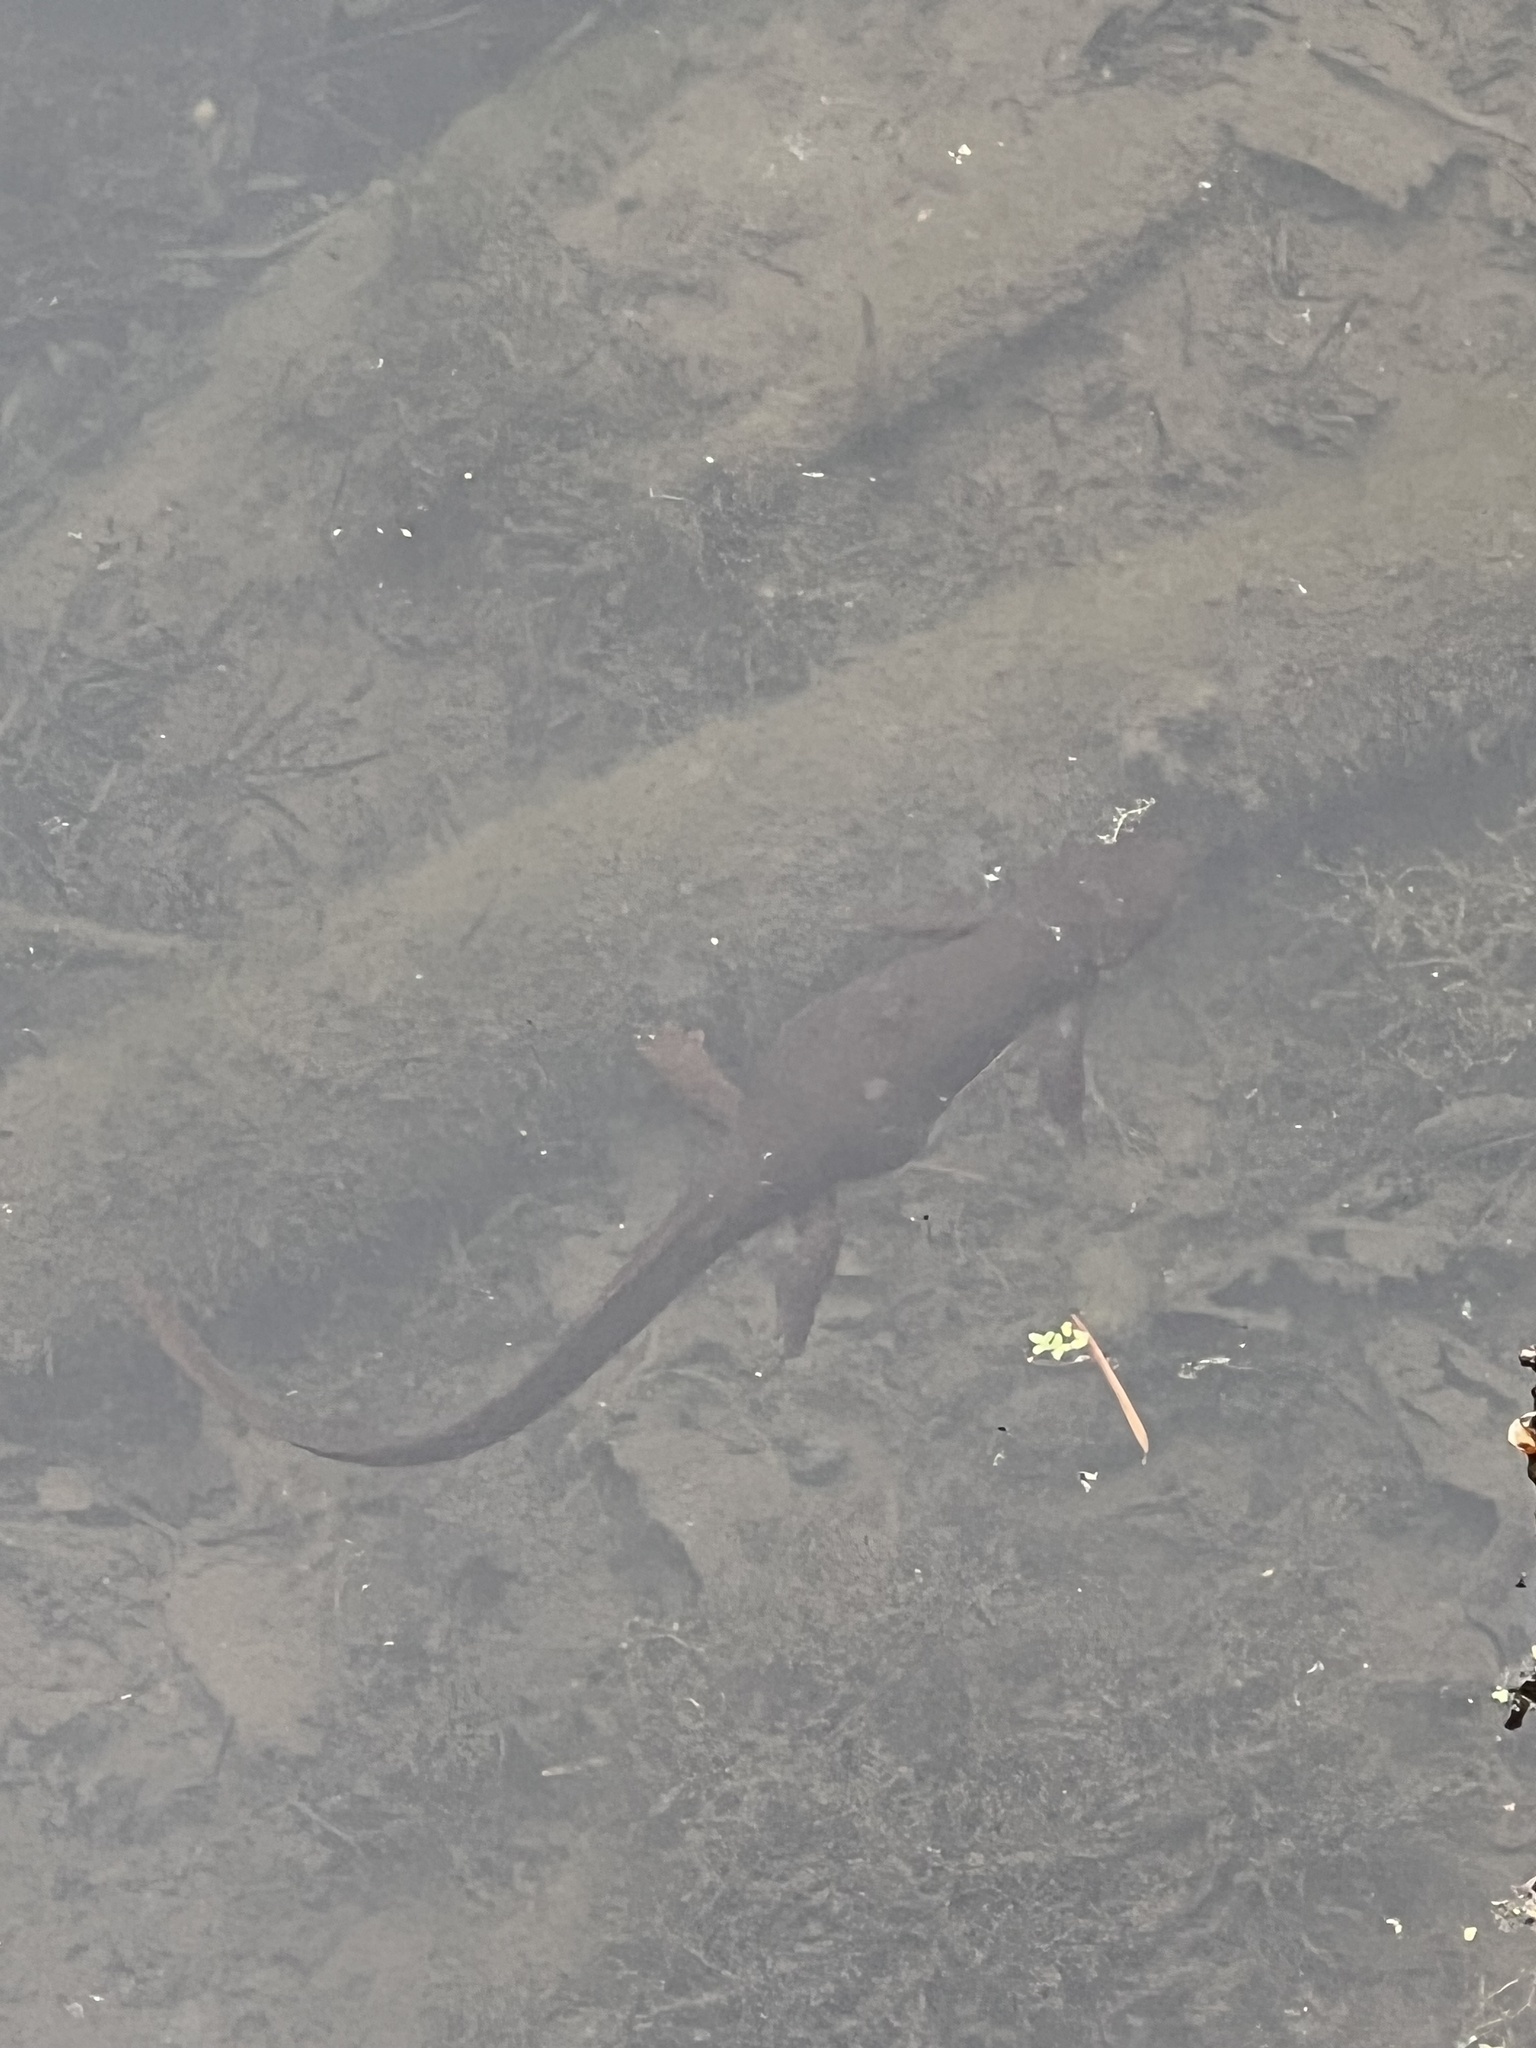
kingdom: Animalia
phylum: Chordata
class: Amphibia
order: Caudata
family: Salamandridae
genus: Taricha
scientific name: Taricha granulosa
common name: Roughskin newt
